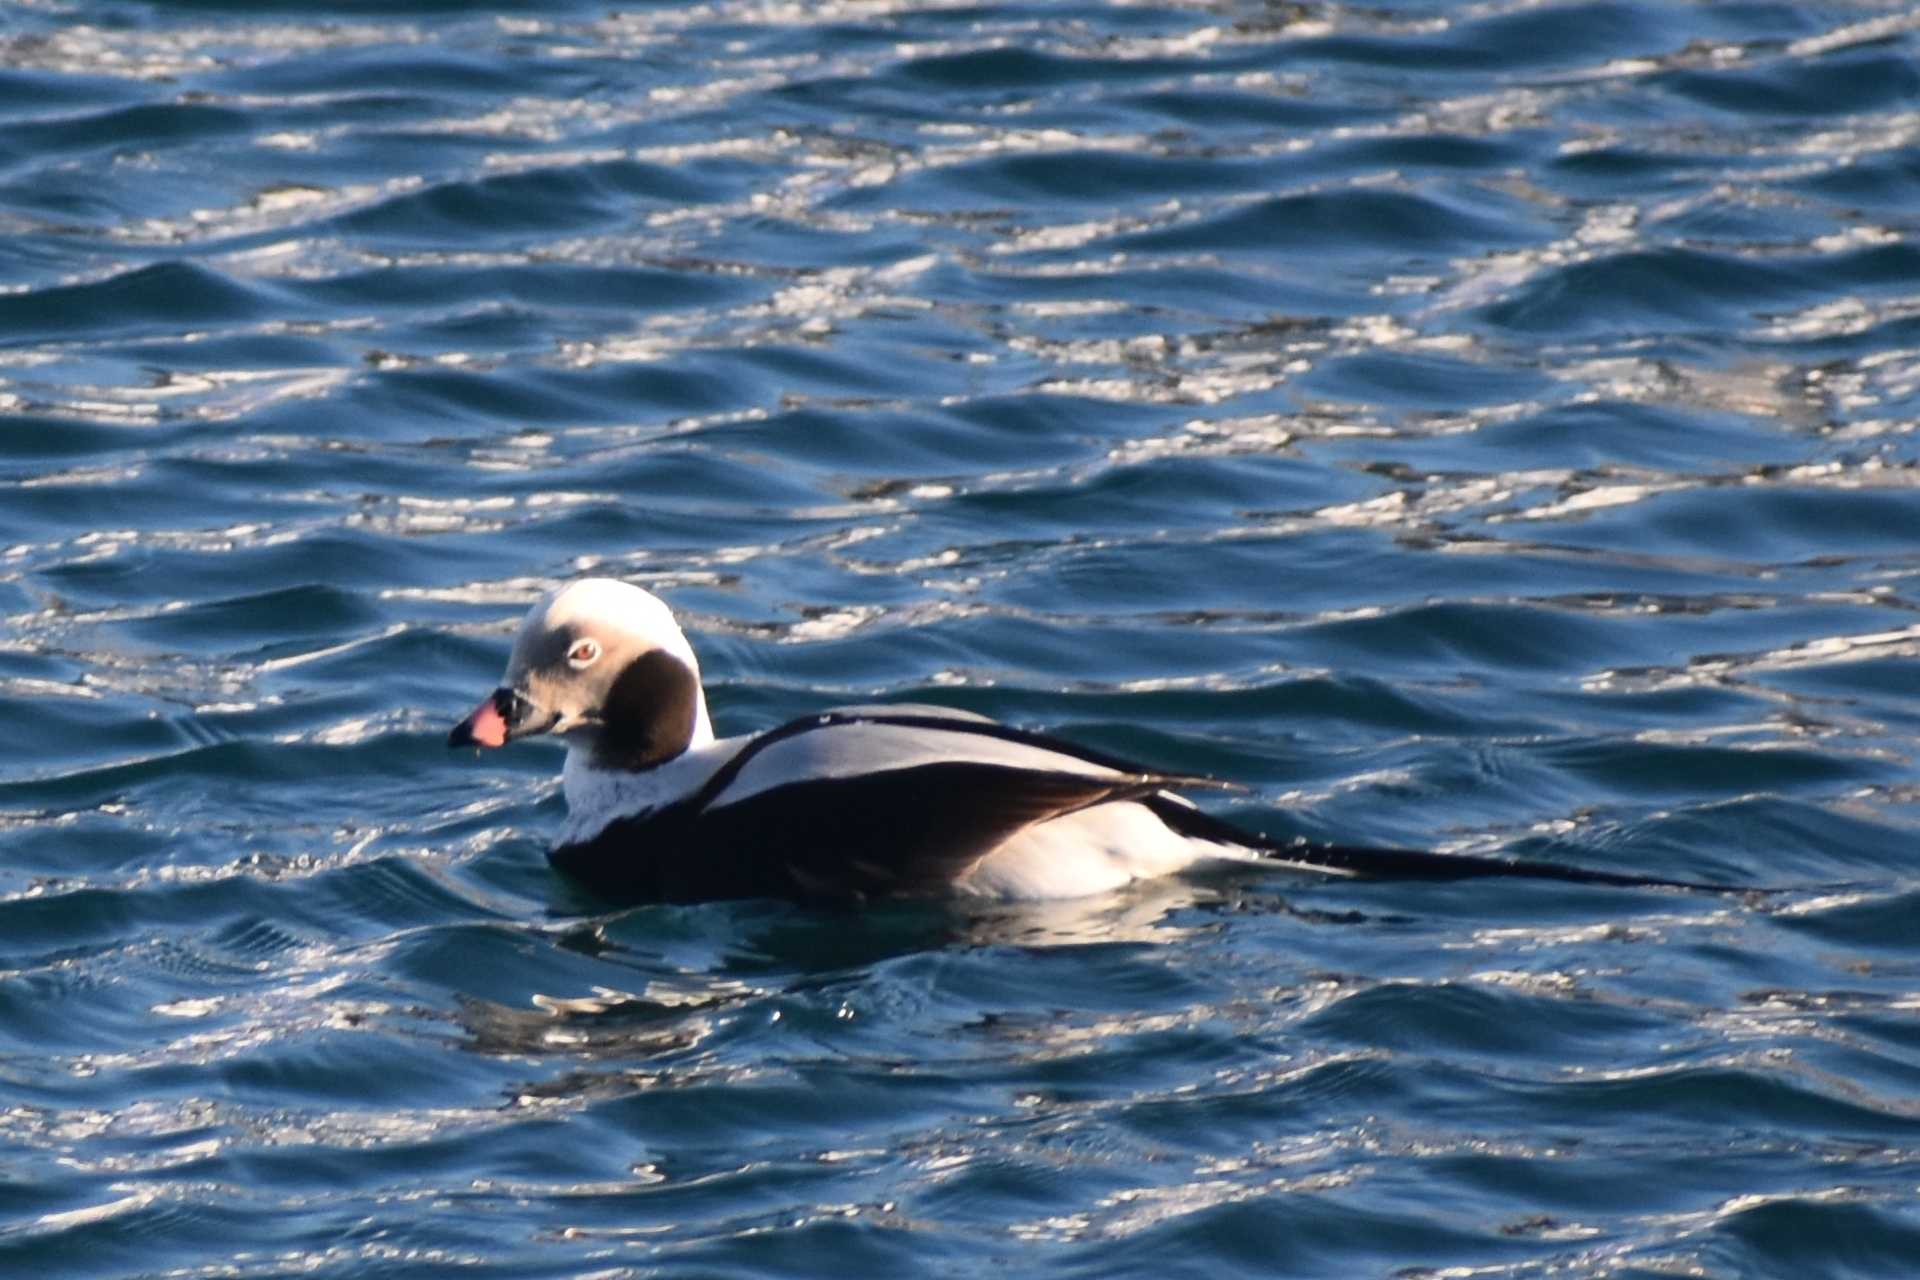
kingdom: Animalia
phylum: Chordata
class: Aves
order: Anseriformes
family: Anatidae
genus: Clangula
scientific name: Clangula hyemalis
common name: Long-tailed duck
